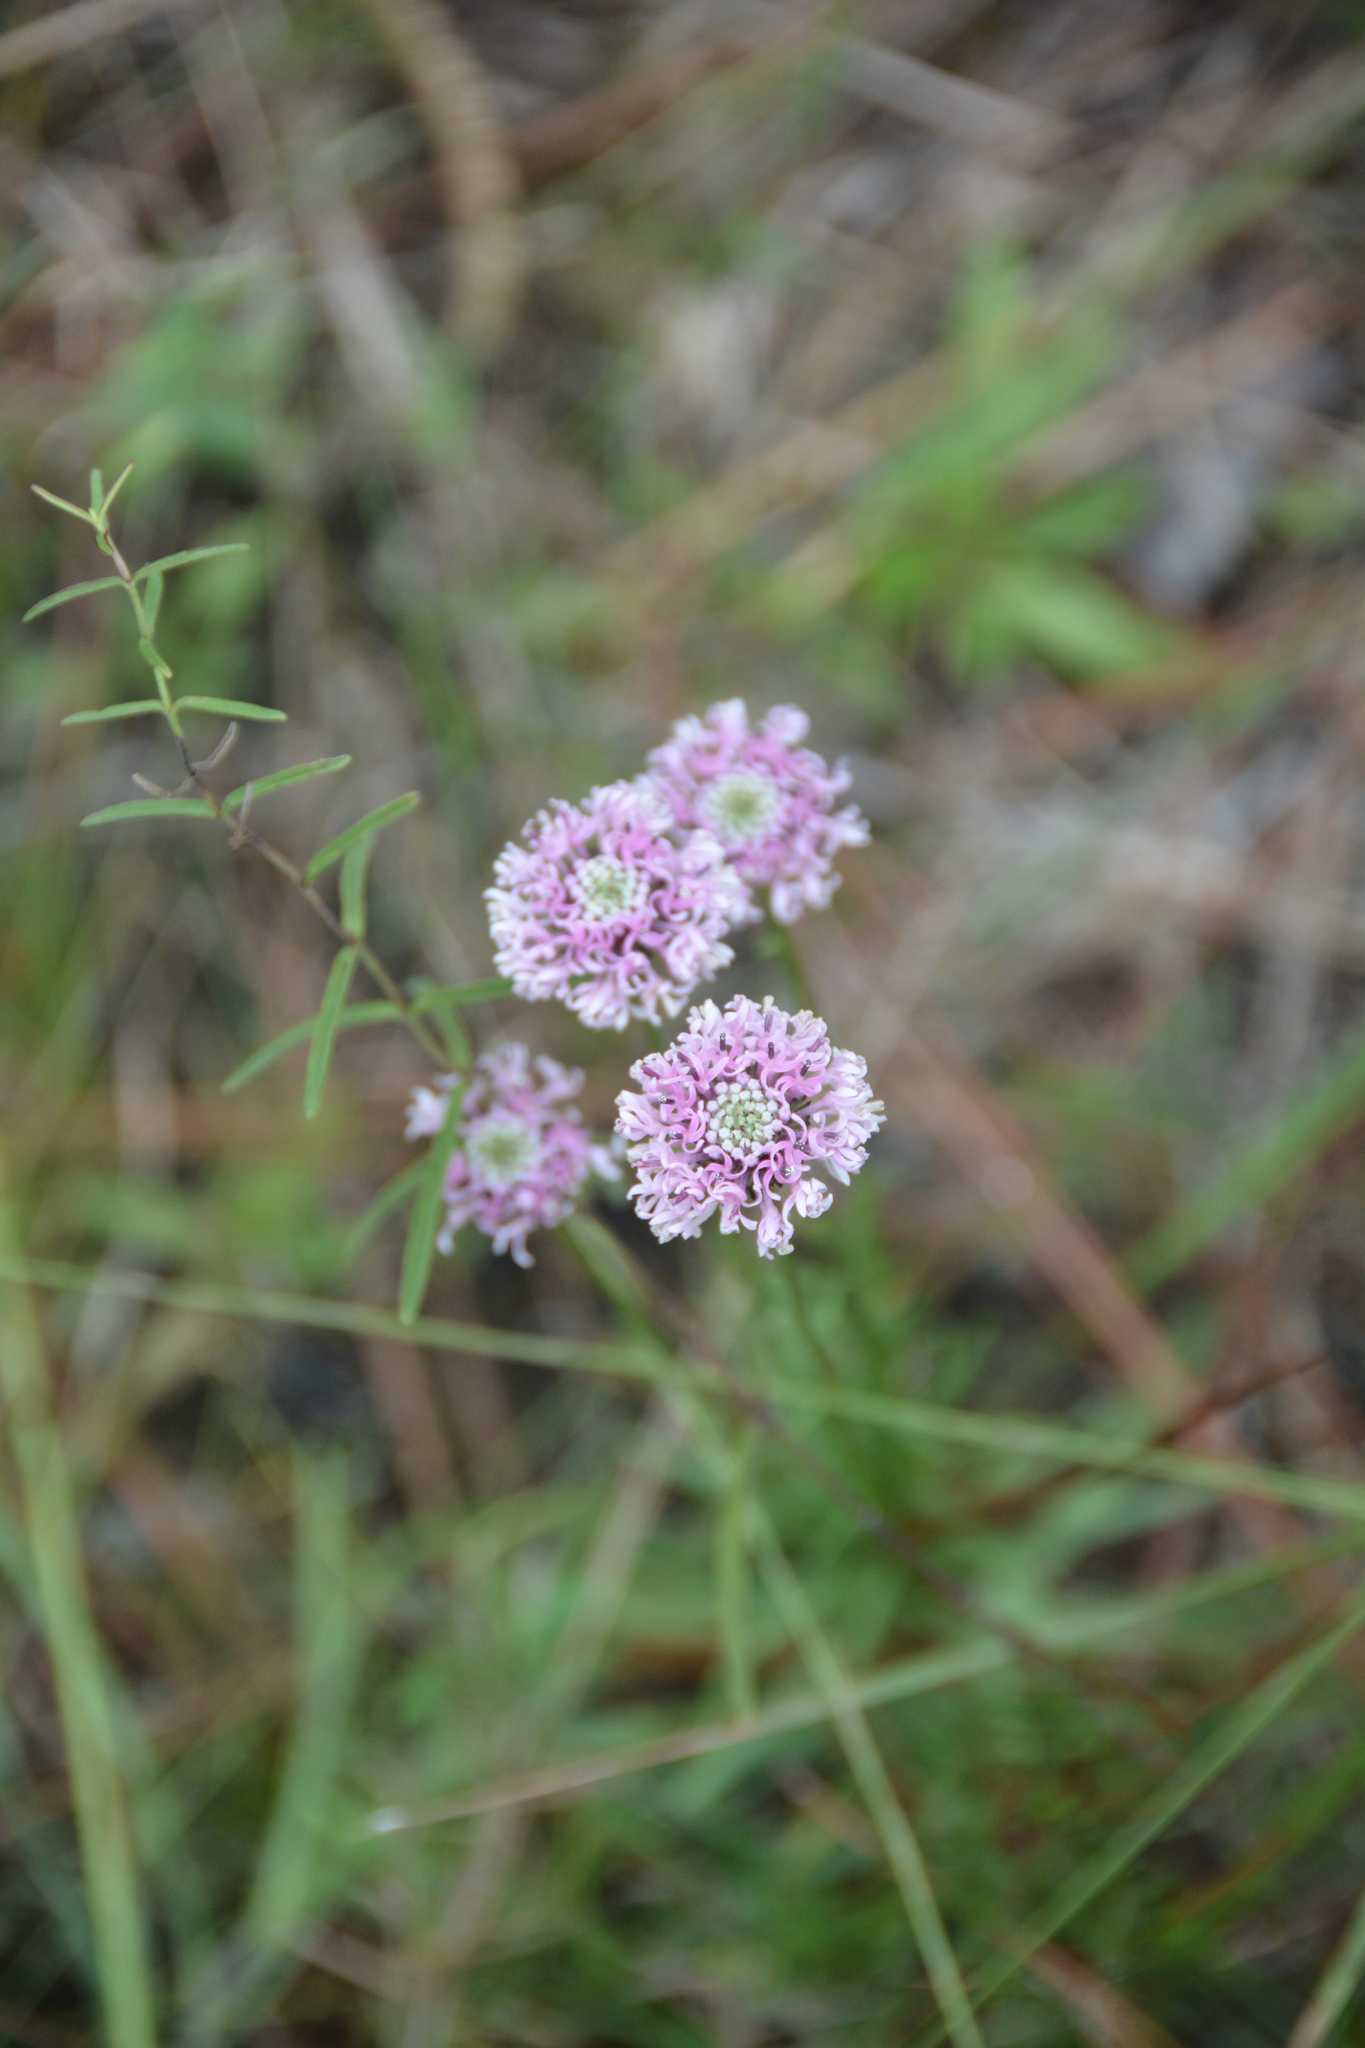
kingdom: Plantae
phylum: Tracheophyta
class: Magnoliopsida
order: Asterales
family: Asteraceae
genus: Marshallia
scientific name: Marshallia graminifolia
